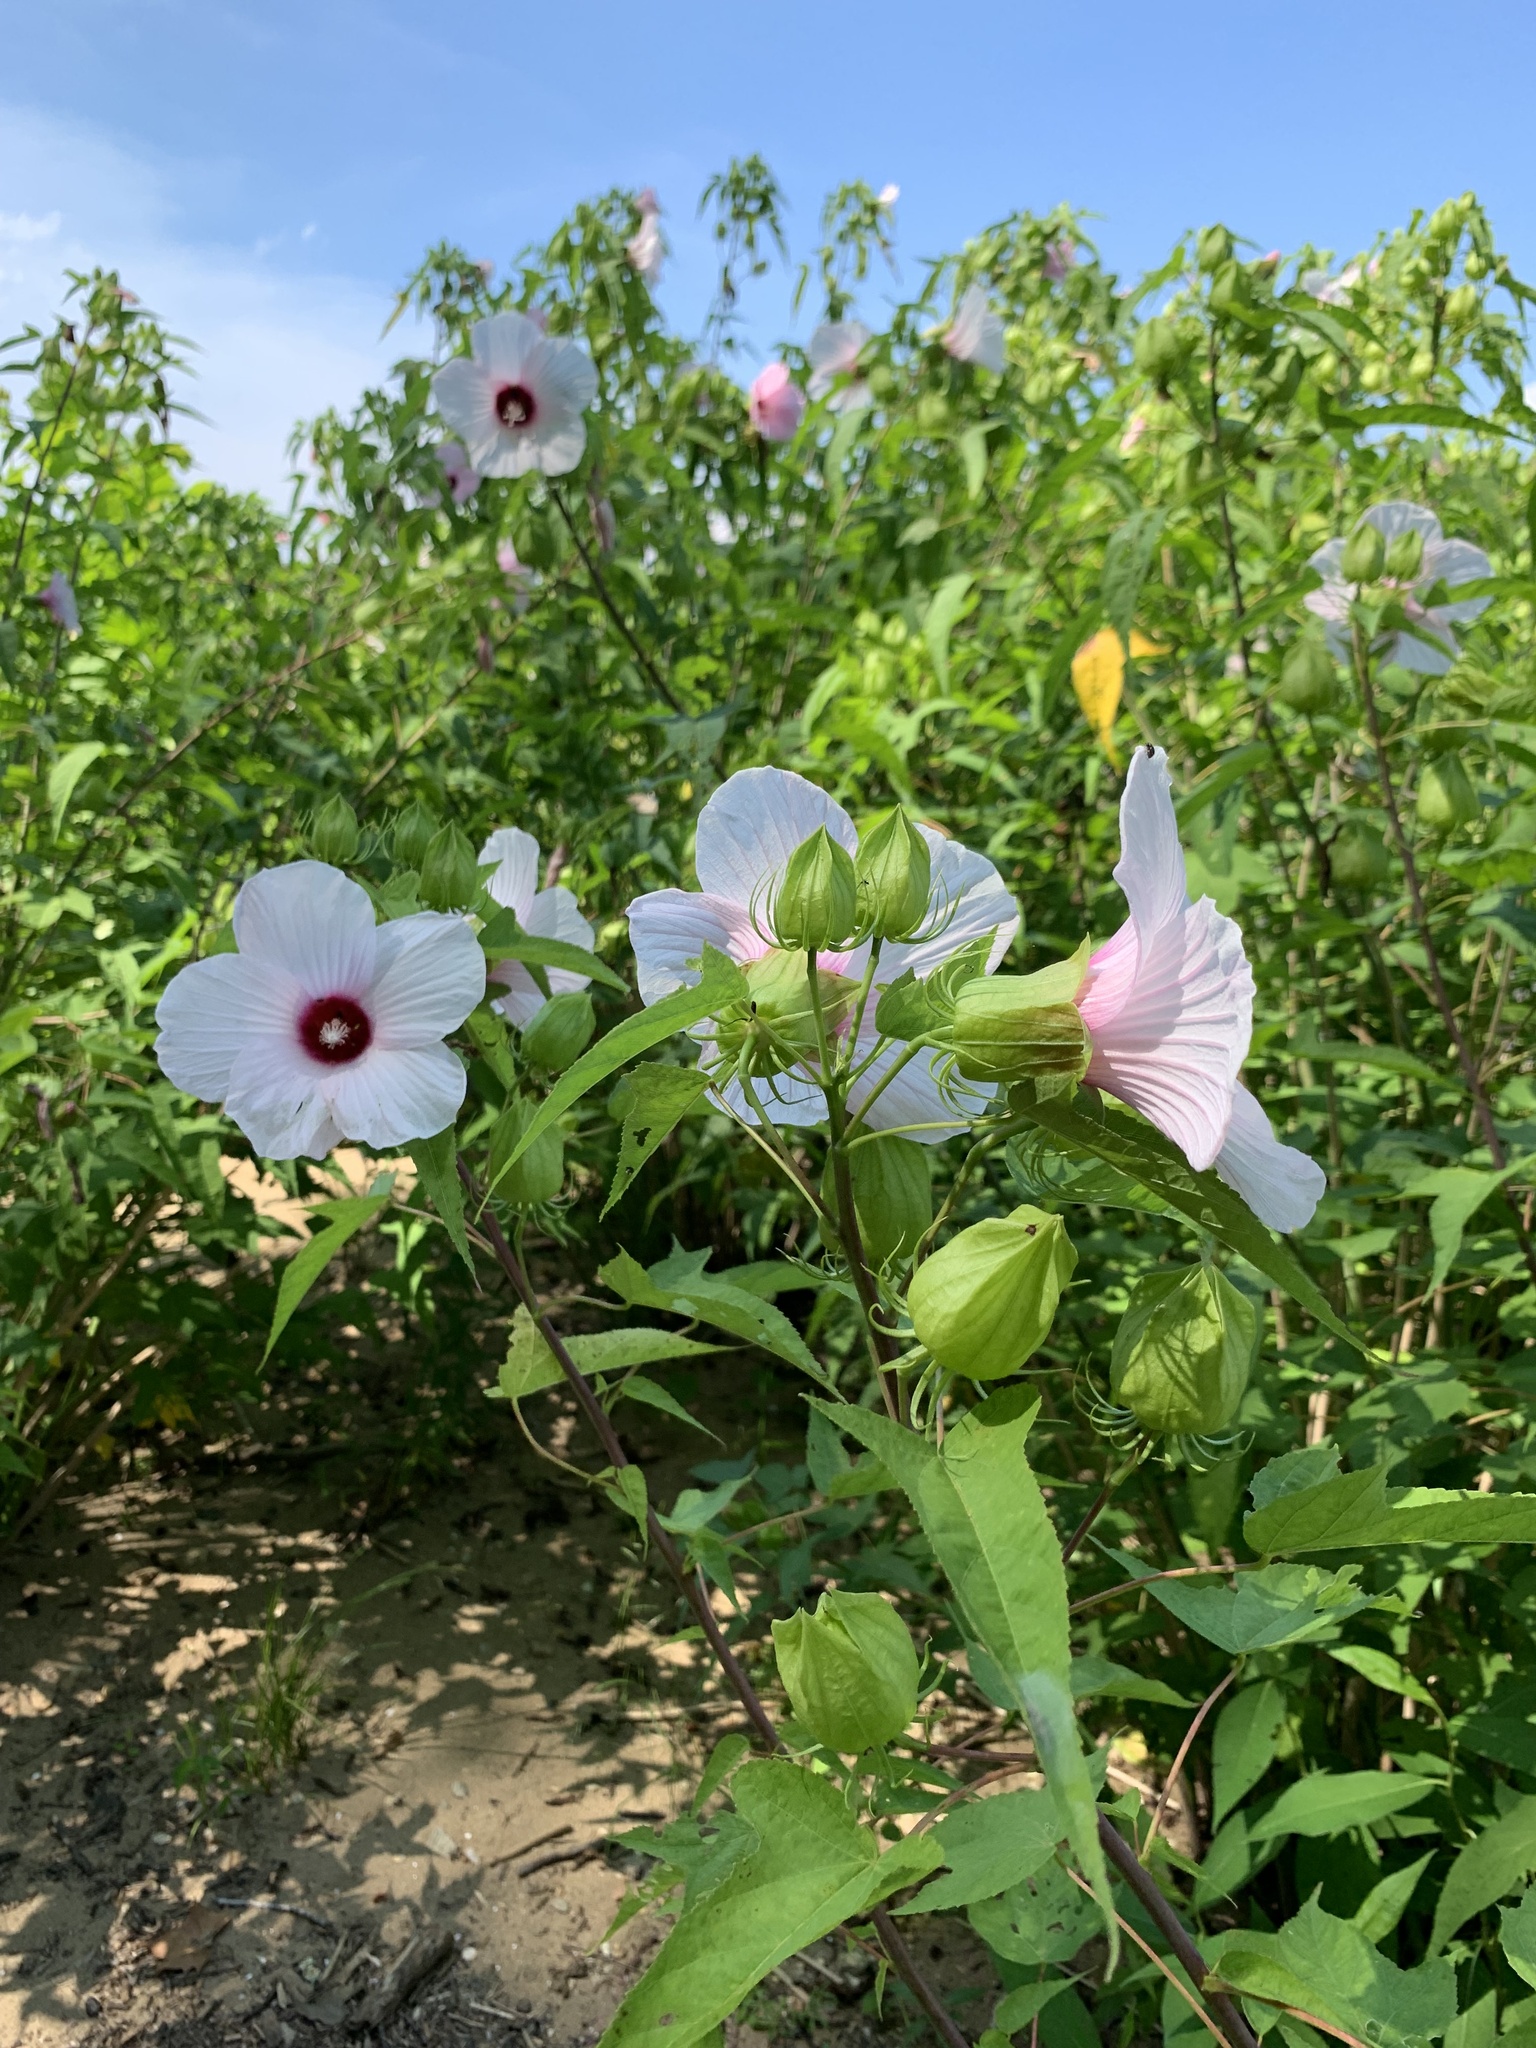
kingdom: Plantae
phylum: Tracheophyta
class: Magnoliopsida
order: Malvales
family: Malvaceae
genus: Hibiscus
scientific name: Hibiscus laevis
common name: Scarlet rose-mallow
